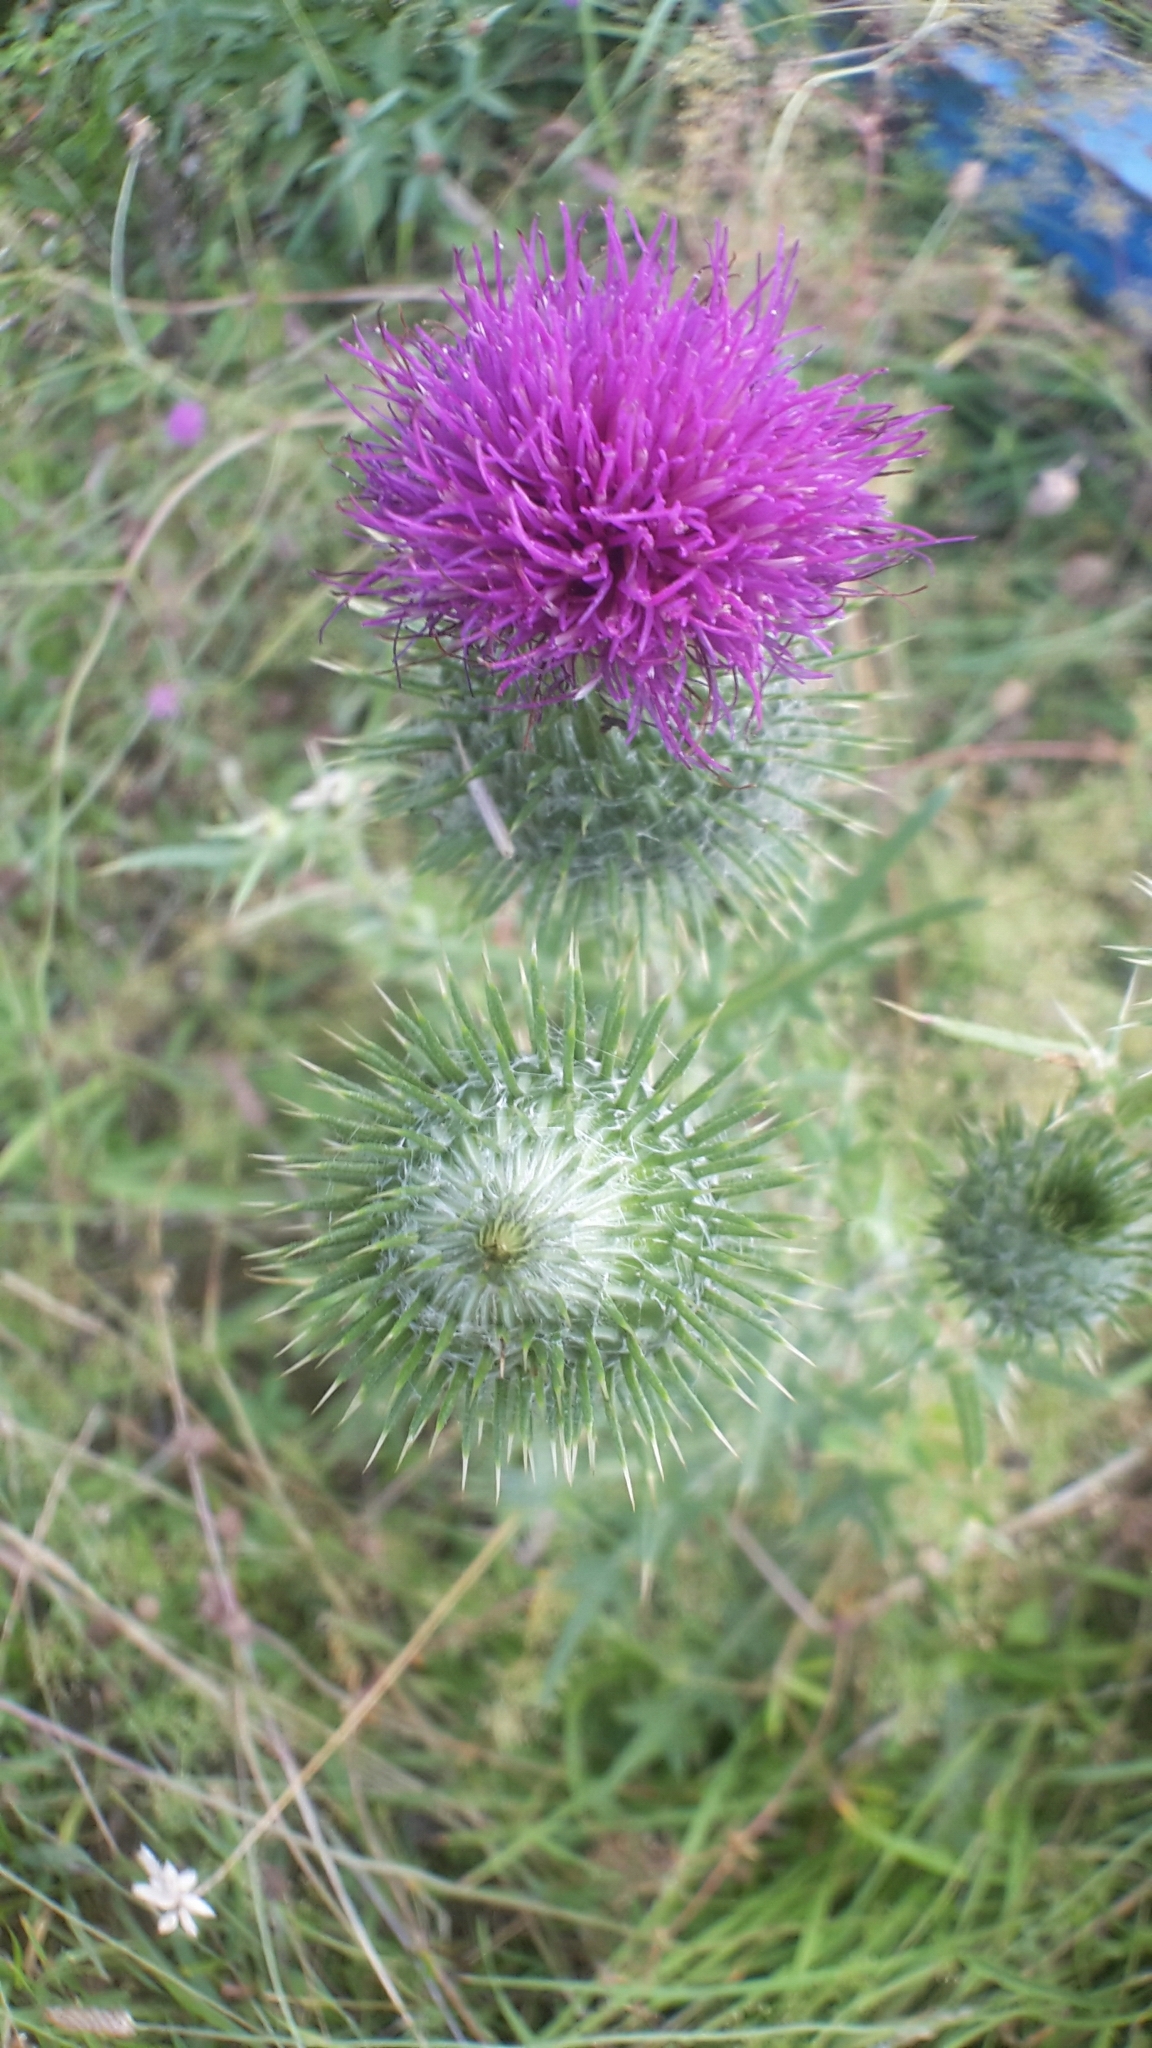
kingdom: Plantae
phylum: Tracheophyta
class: Magnoliopsida
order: Asterales
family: Asteraceae
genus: Cirsium
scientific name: Cirsium vulgare
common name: Bull thistle
